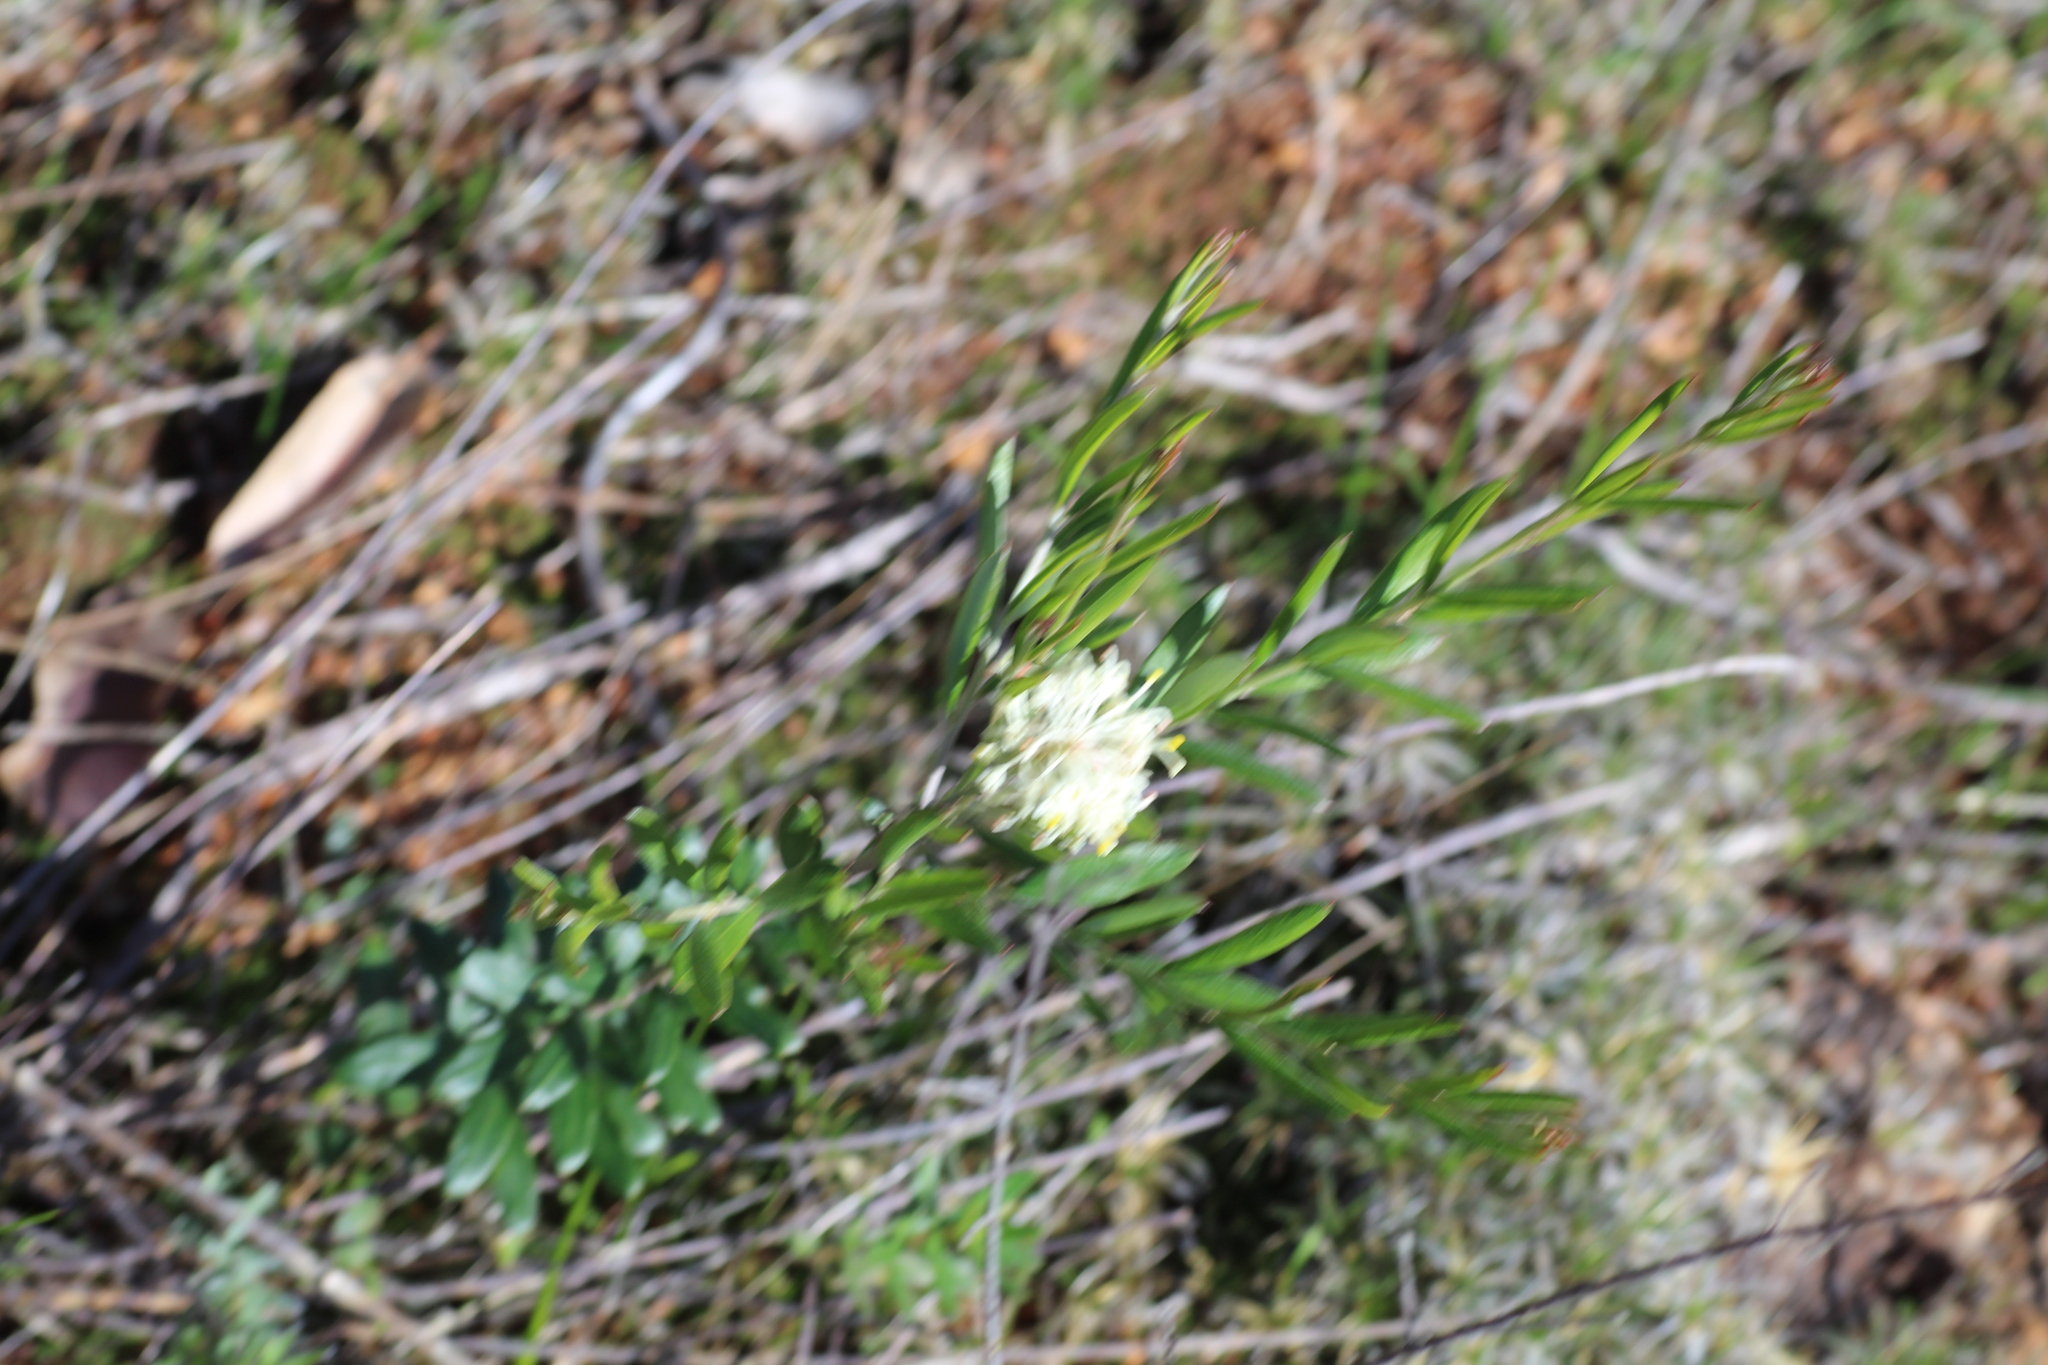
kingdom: Plantae
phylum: Tracheophyta
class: Magnoliopsida
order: Proteales
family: Proteaceae
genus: Grevillea
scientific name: Grevillea pilulifera
